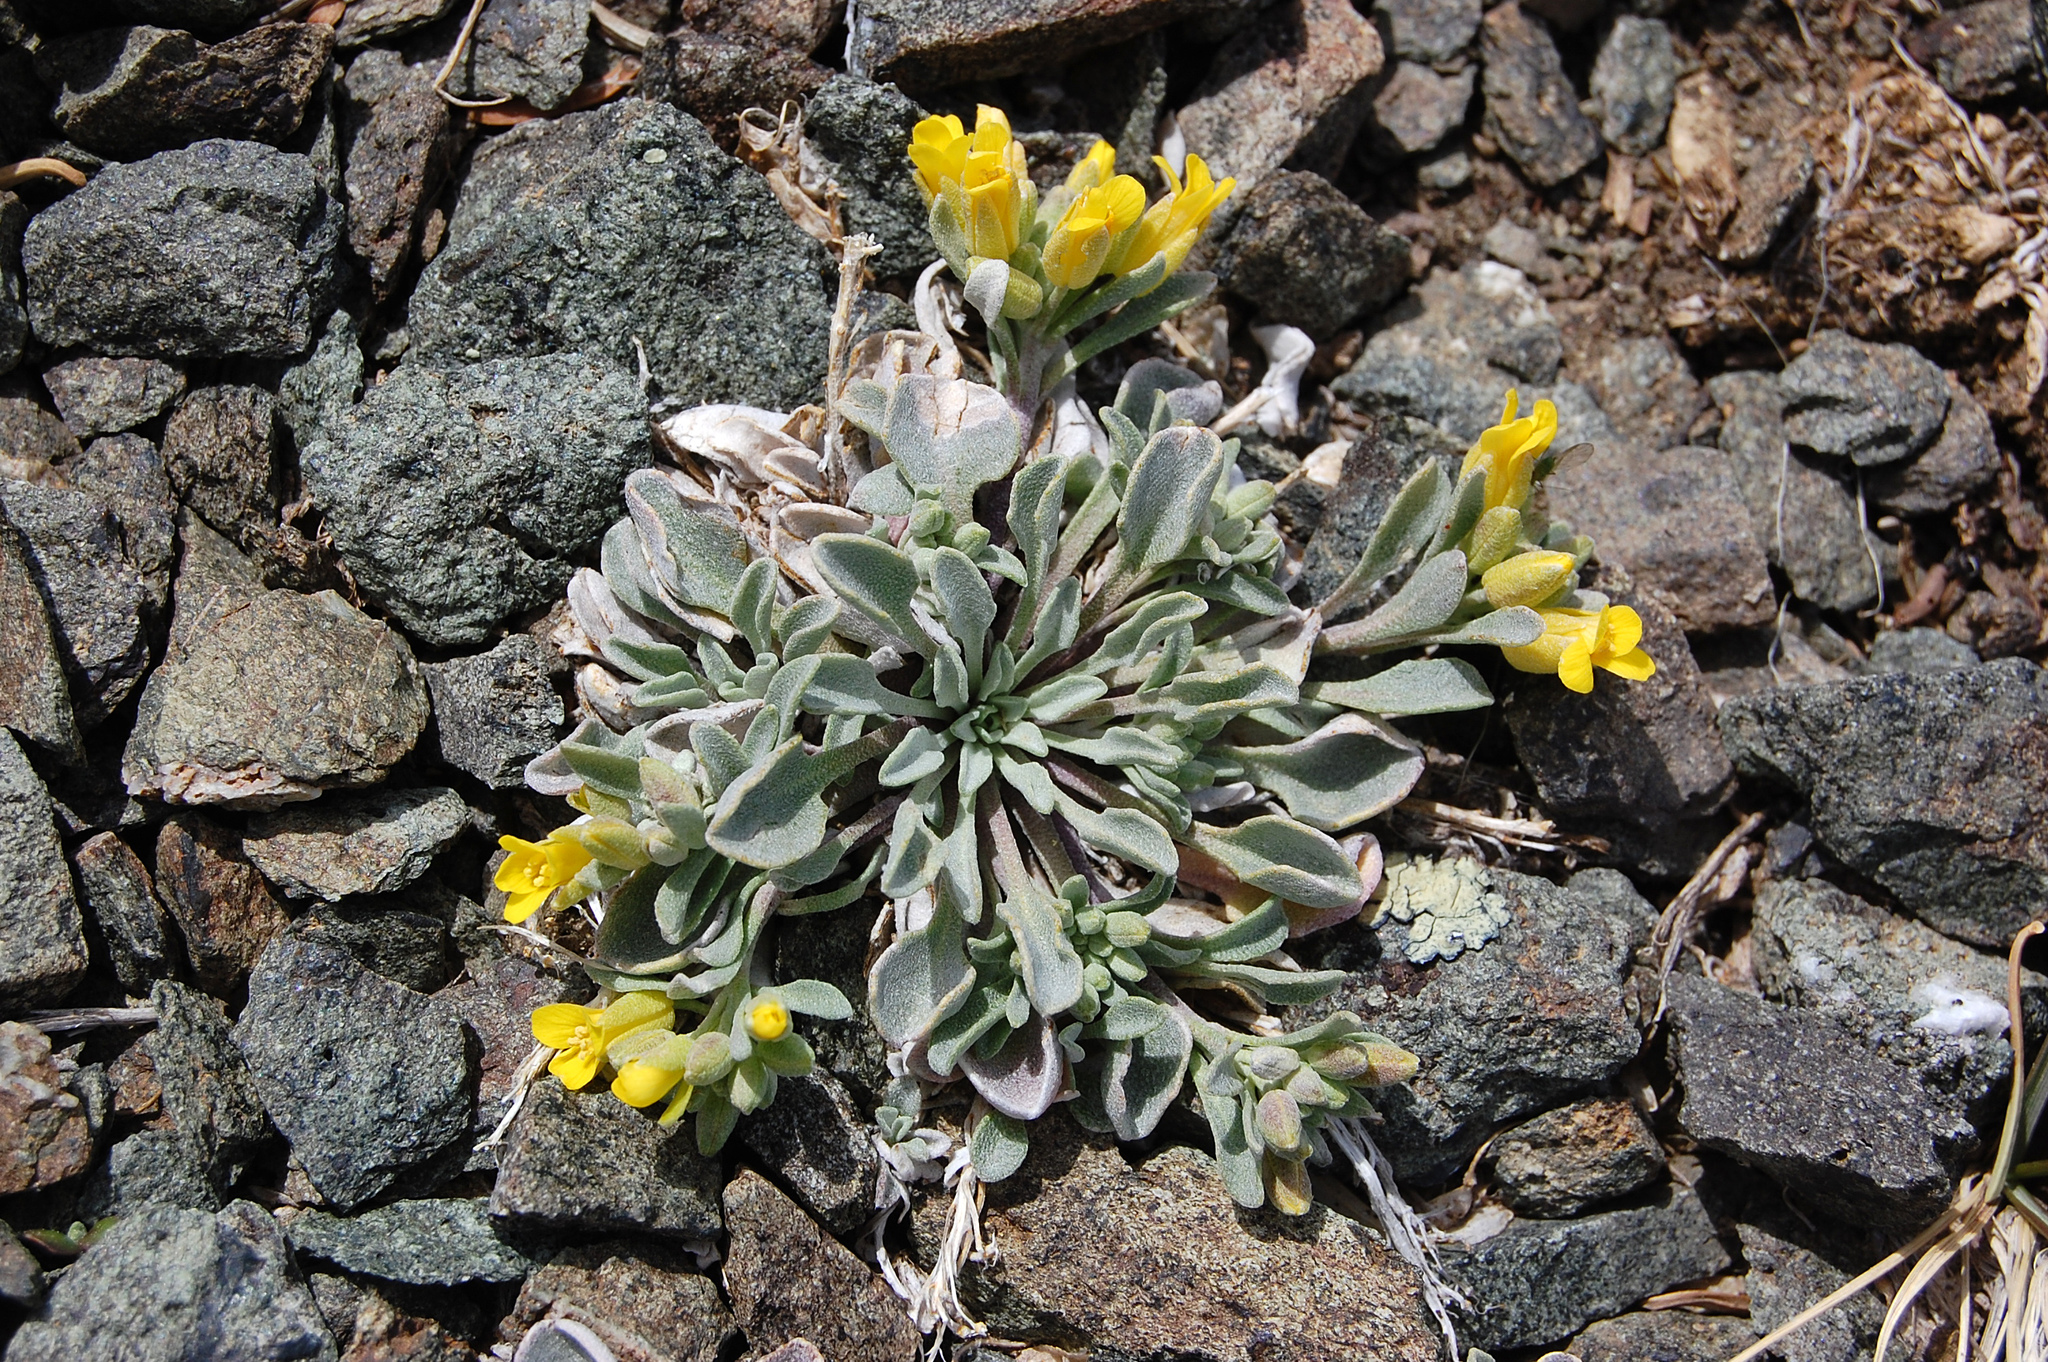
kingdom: Plantae
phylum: Tracheophyta
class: Magnoliopsida
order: Brassicales
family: Brassicaceae
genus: Physaria
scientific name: Physaria occidentalis
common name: Western bladderpod
